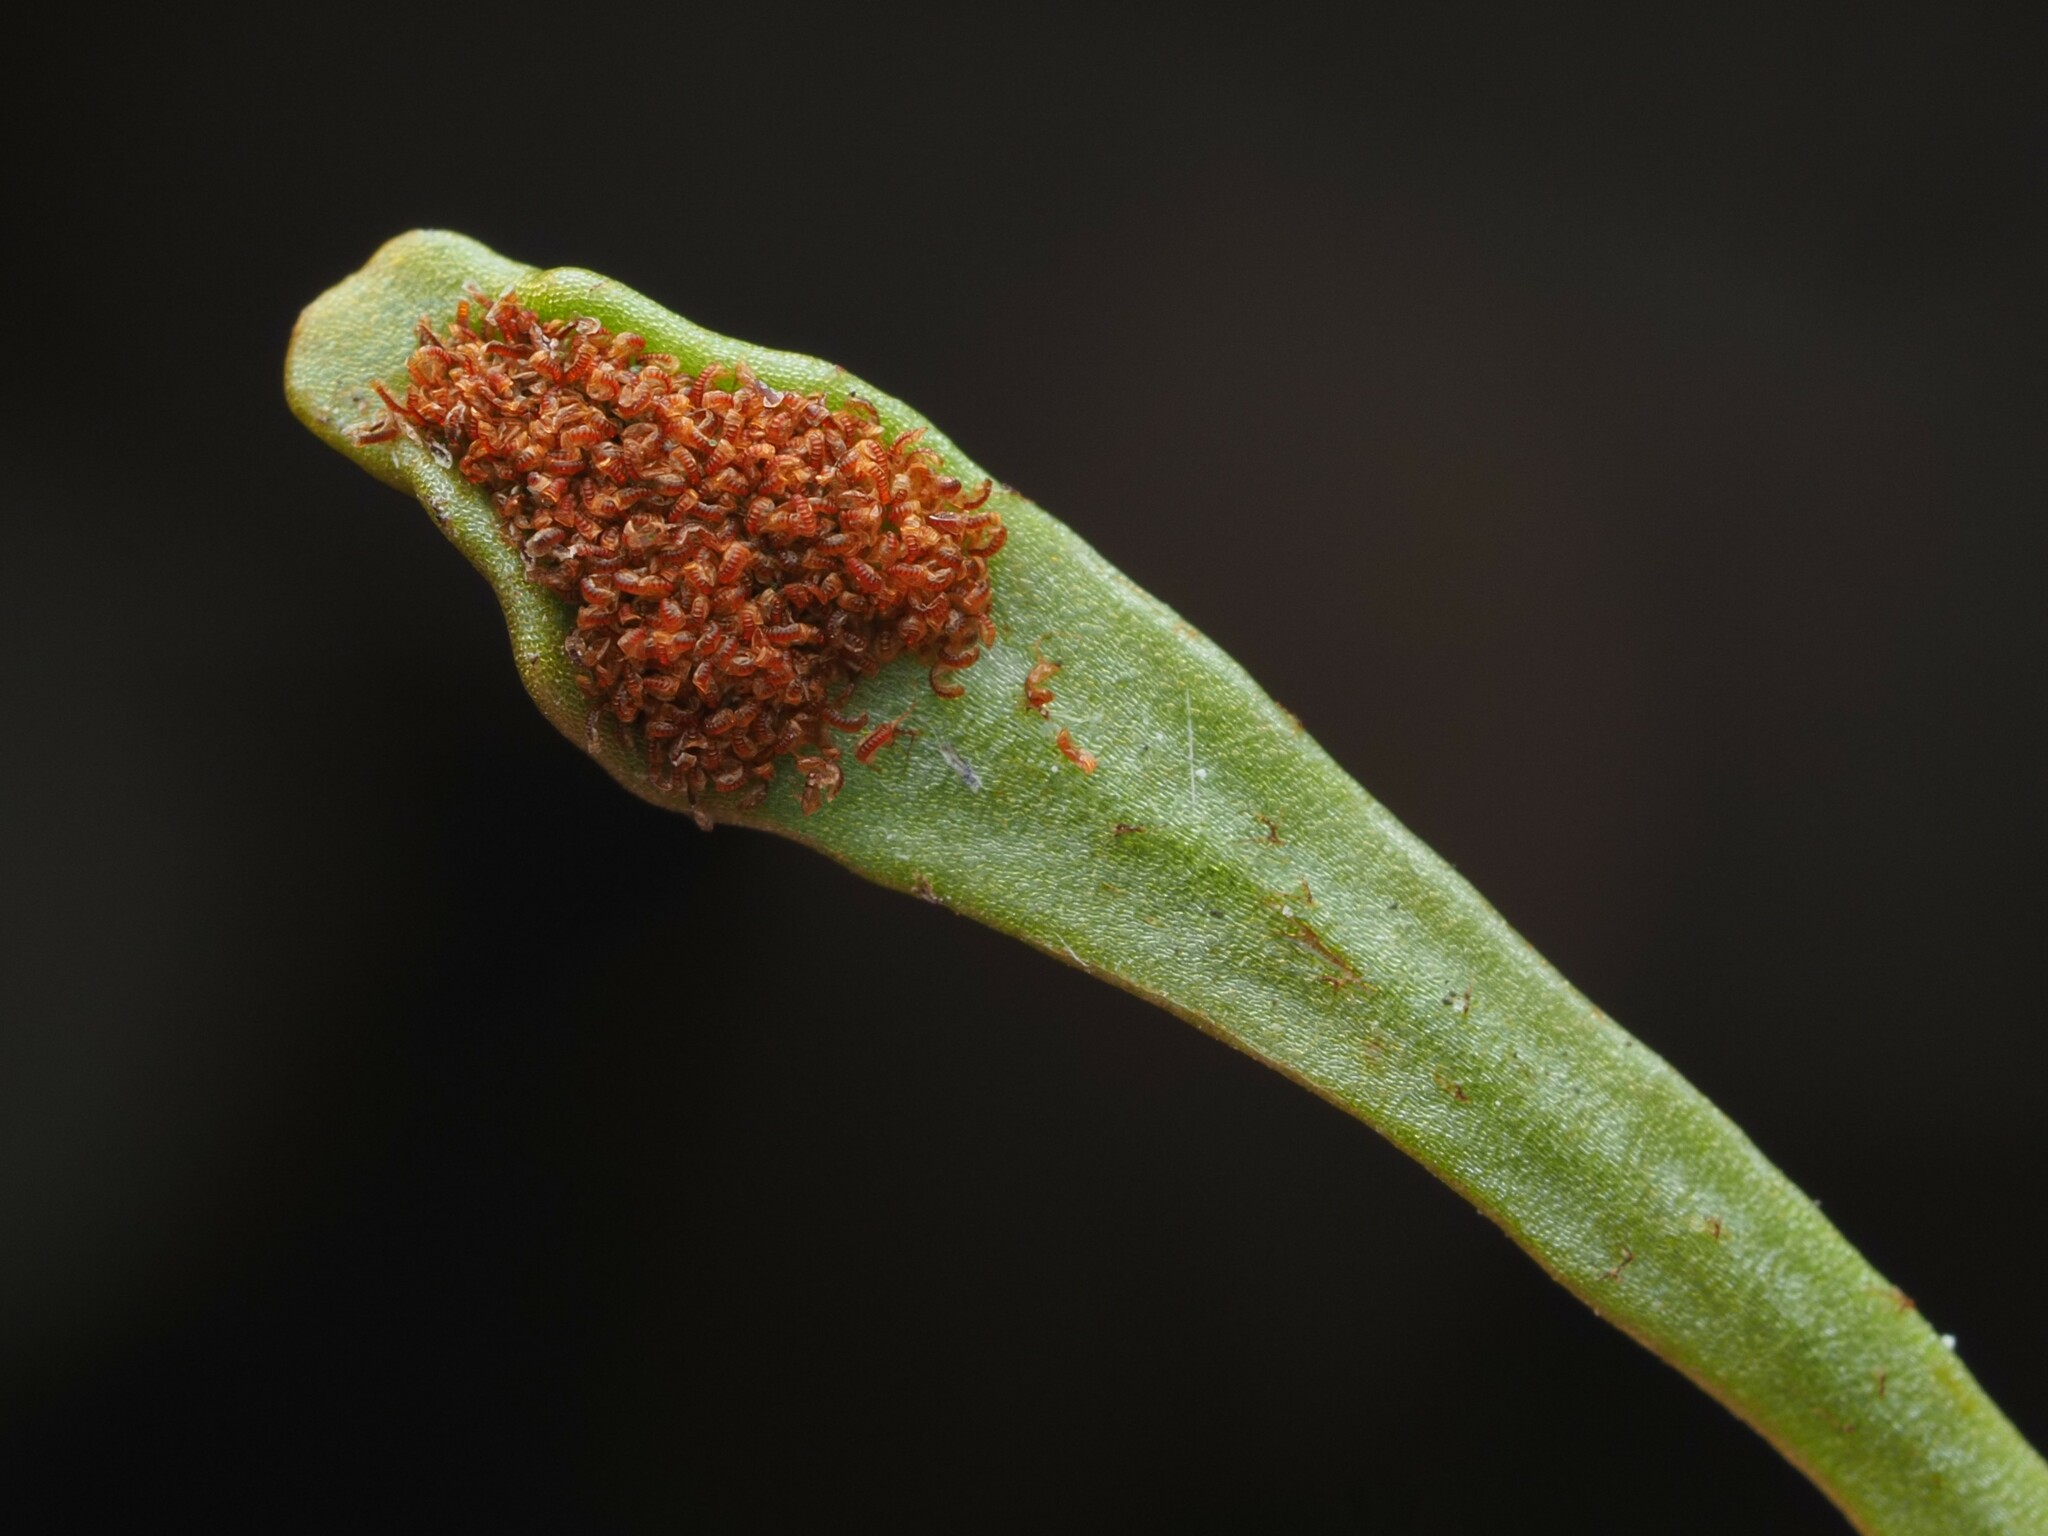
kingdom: Plantae
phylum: Tracheophyta
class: Polypodiopsida
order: Polypodiales
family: Polypodiaceae
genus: Notogrammitis
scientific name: Notogrammitis crassior
